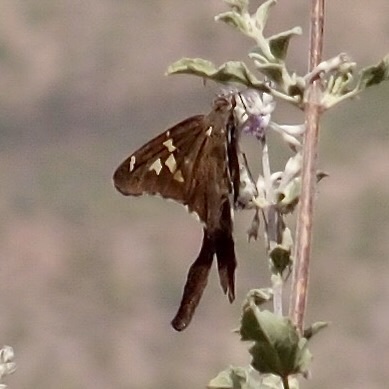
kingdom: Animalia
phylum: Arthropoda
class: Insecta
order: Lepidoptera
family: Hesperiidae
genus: Chioides
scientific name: Chioides catillus
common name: Silverbanded skipper
